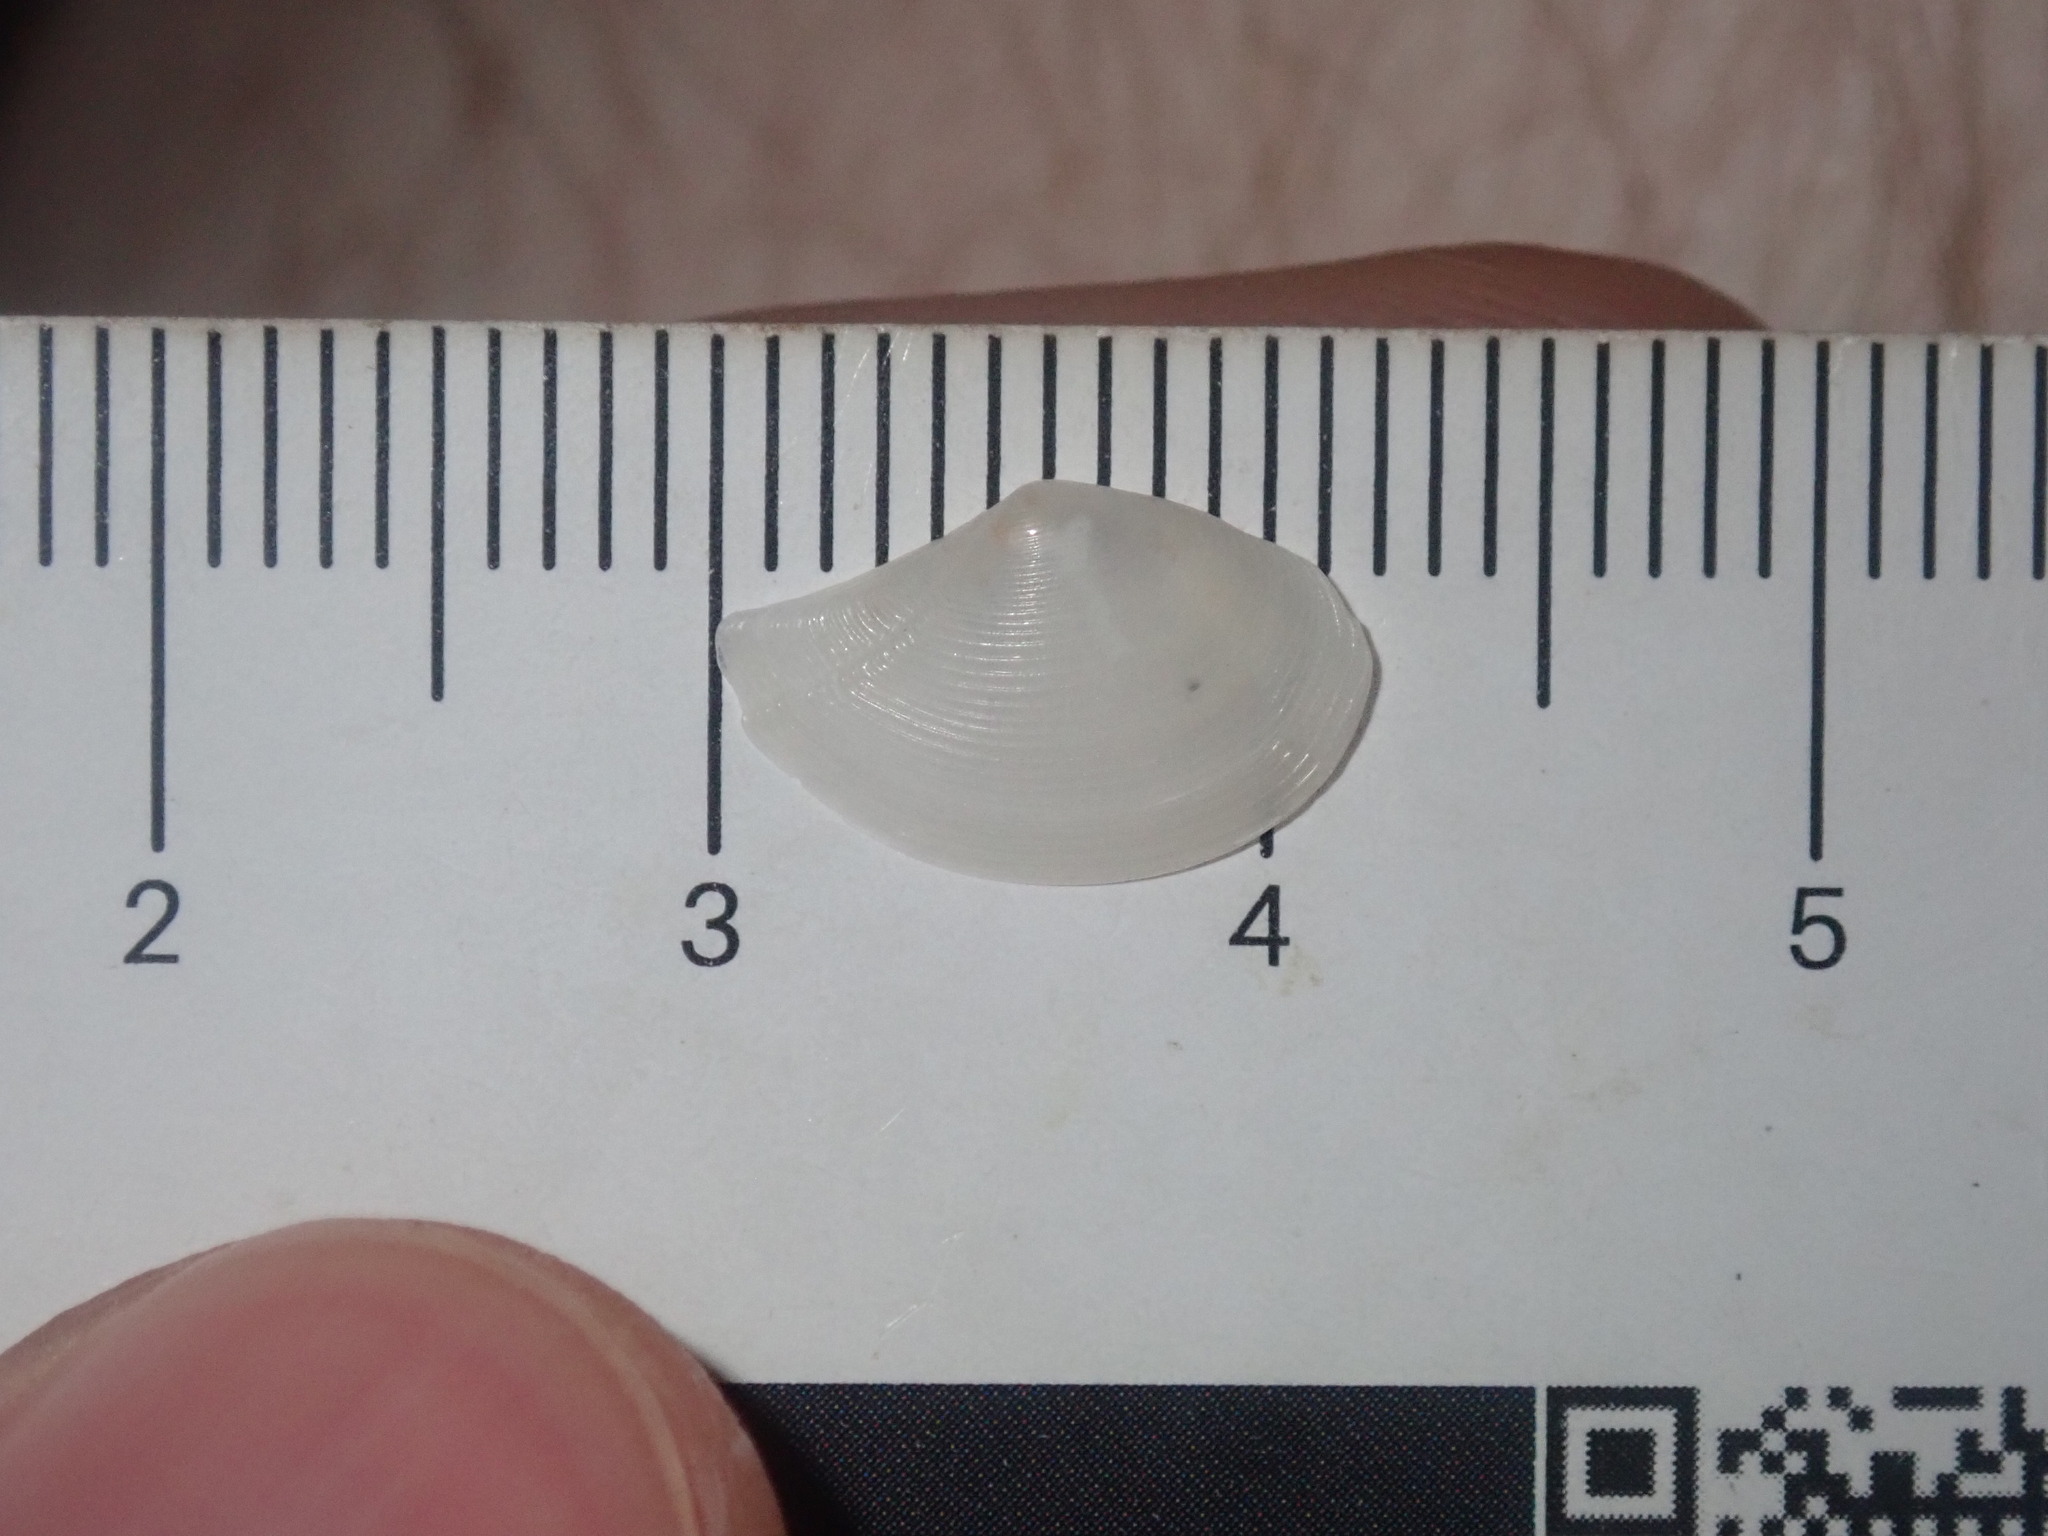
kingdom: Animalia
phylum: Mollusca
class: Bivalvia
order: Nuculanida
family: Nuculanidae
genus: Nuculana
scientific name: Nuculana dohrni
